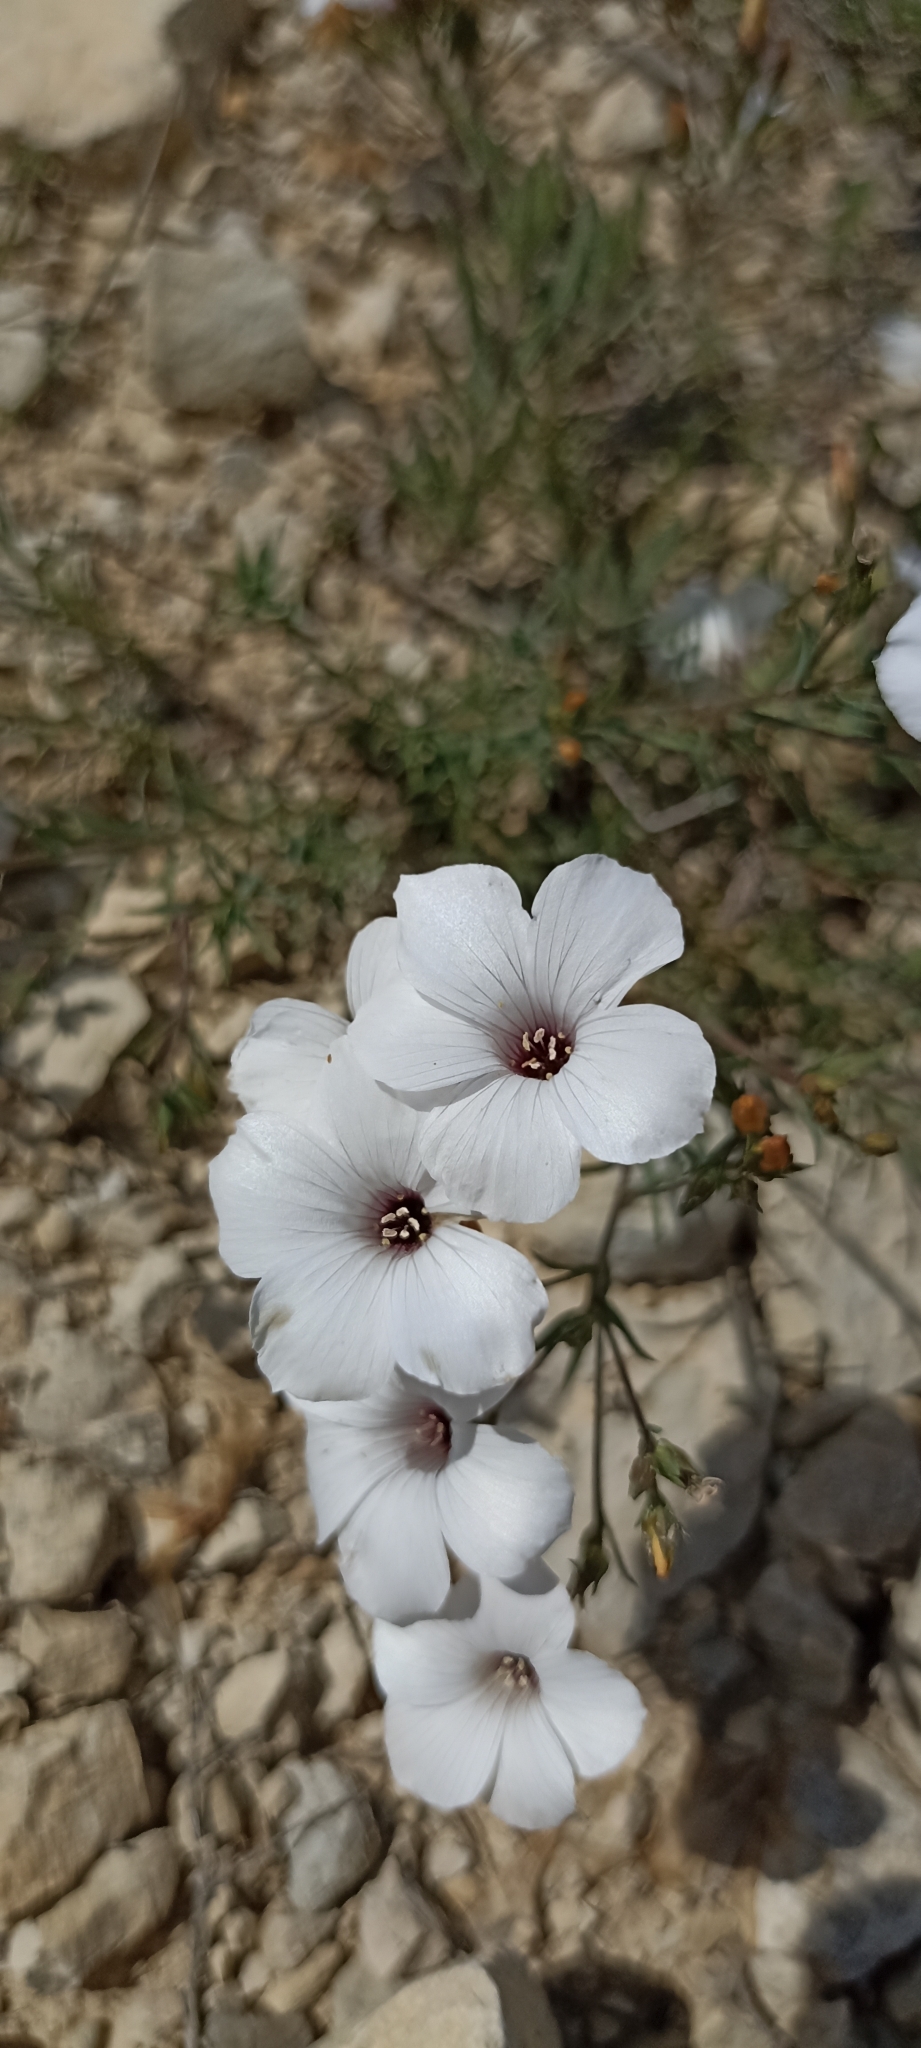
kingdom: Plantae
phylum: Tracheophyta
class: Magnoliopsida
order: Malpighiales
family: Linaceae
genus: Linum
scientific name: Linum suffruticosum
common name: White flax
